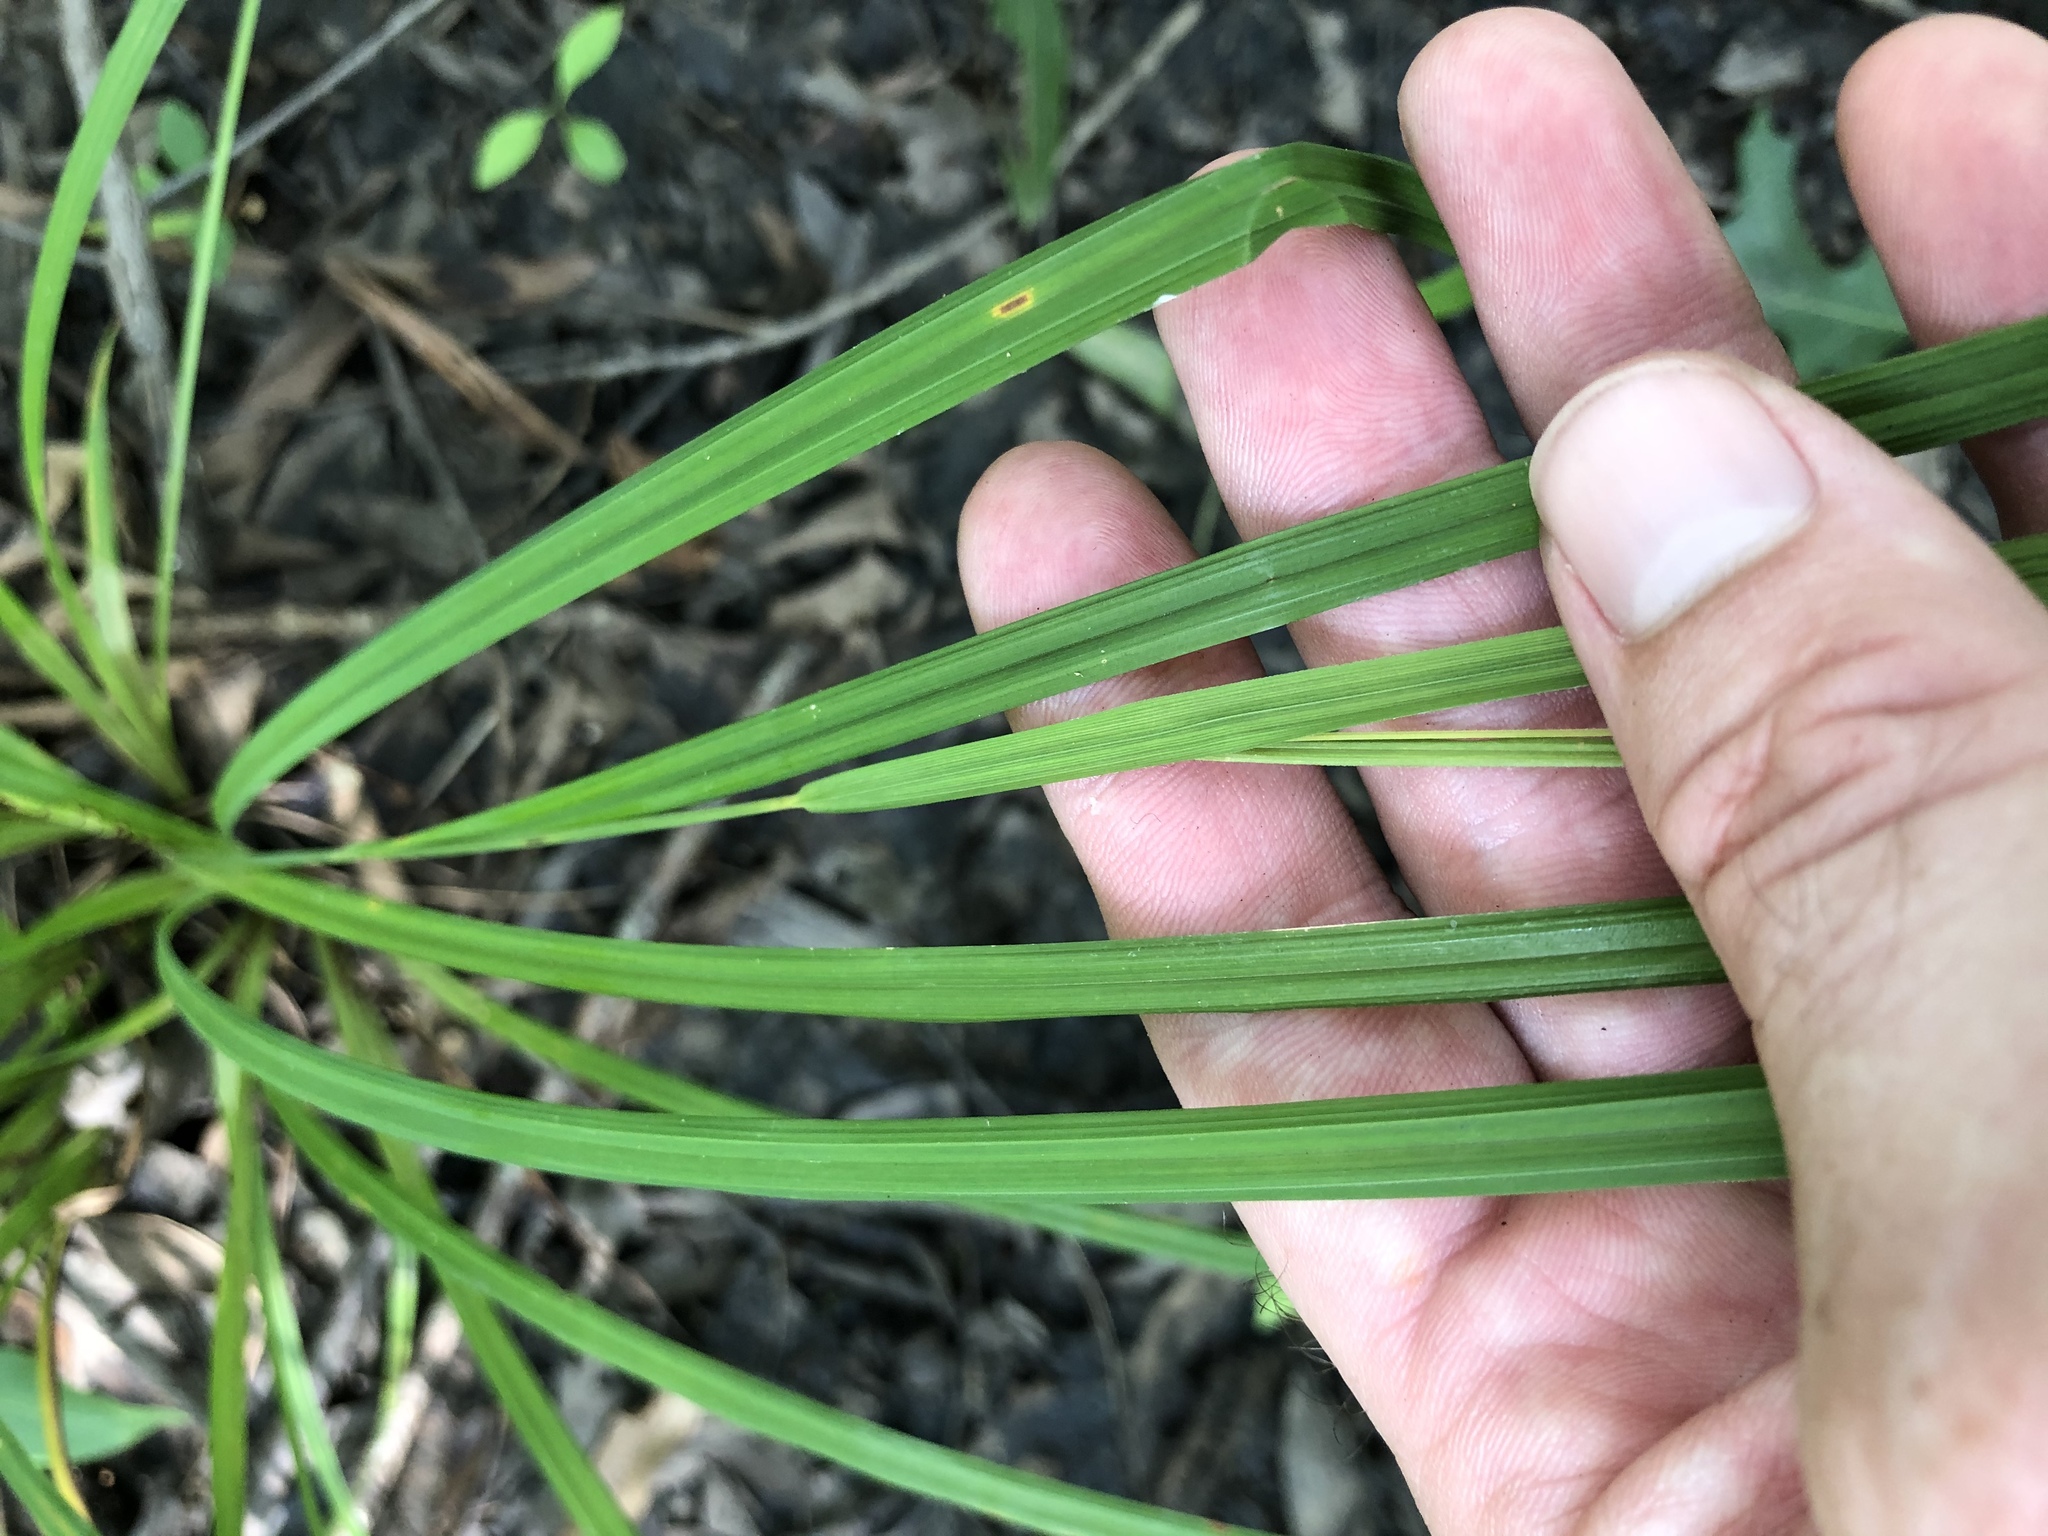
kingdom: Plantae
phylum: Tracheophyta
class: Liliopsida
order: Poales
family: Cyperaceae
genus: Carex
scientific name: Carex typhina
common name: Cattail sedge
